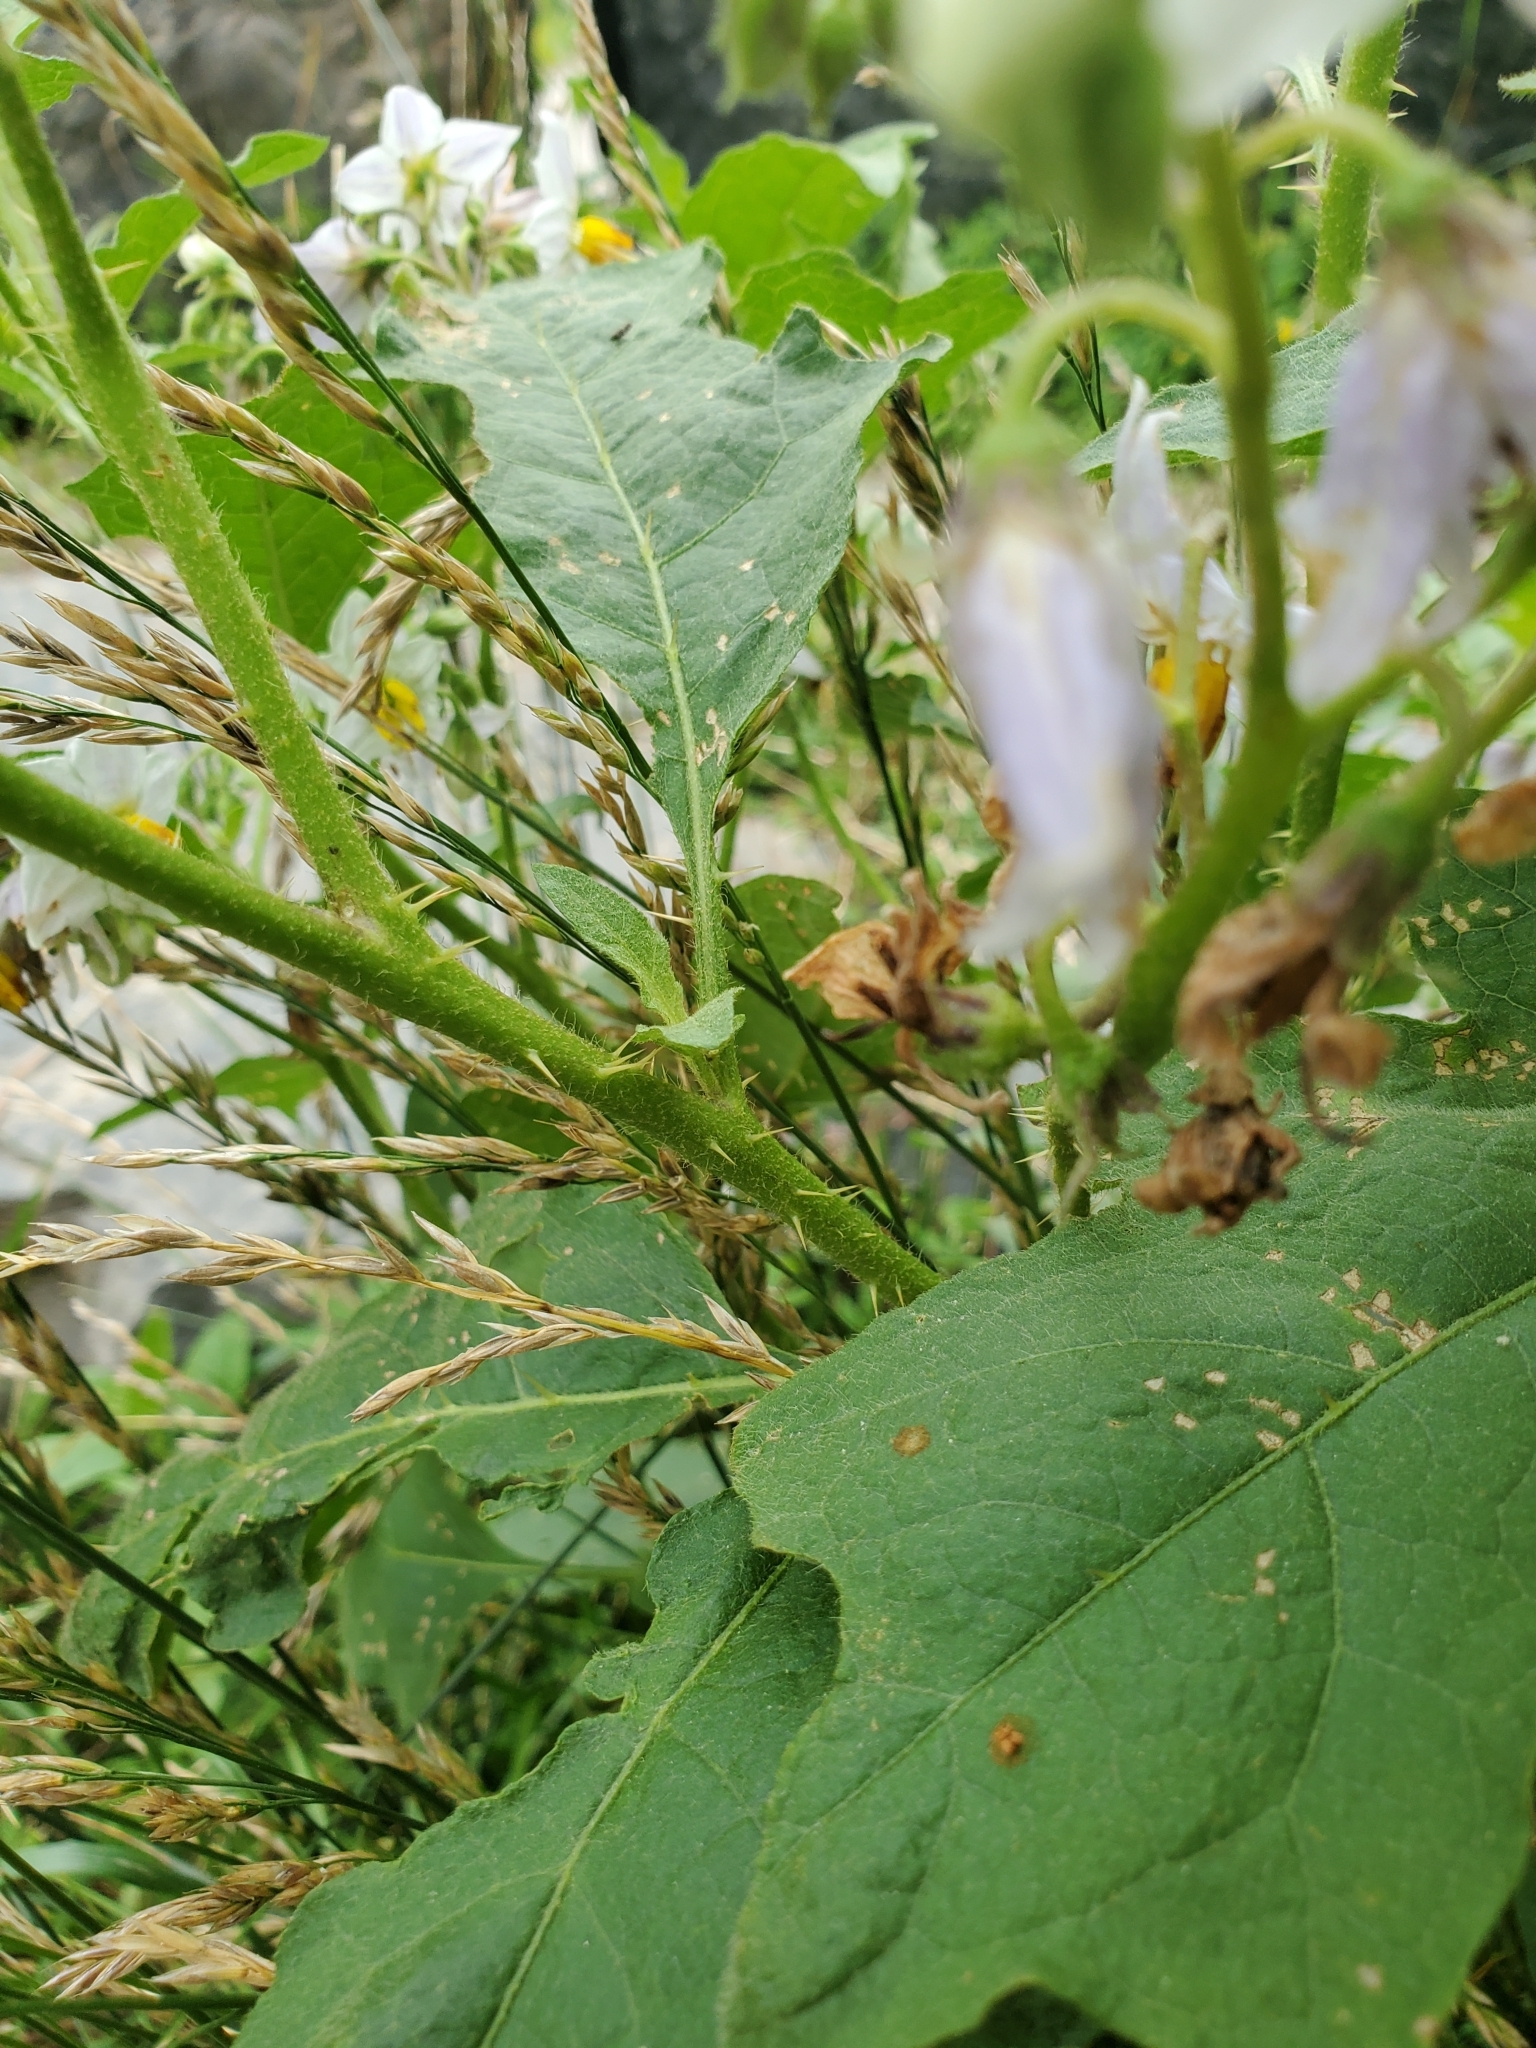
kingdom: Plantae
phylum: Tracheophyta
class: Magnoliopsida
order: Solanales
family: Solanaceae
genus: Solanum
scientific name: Solanum carolinense
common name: Horse-nettle
